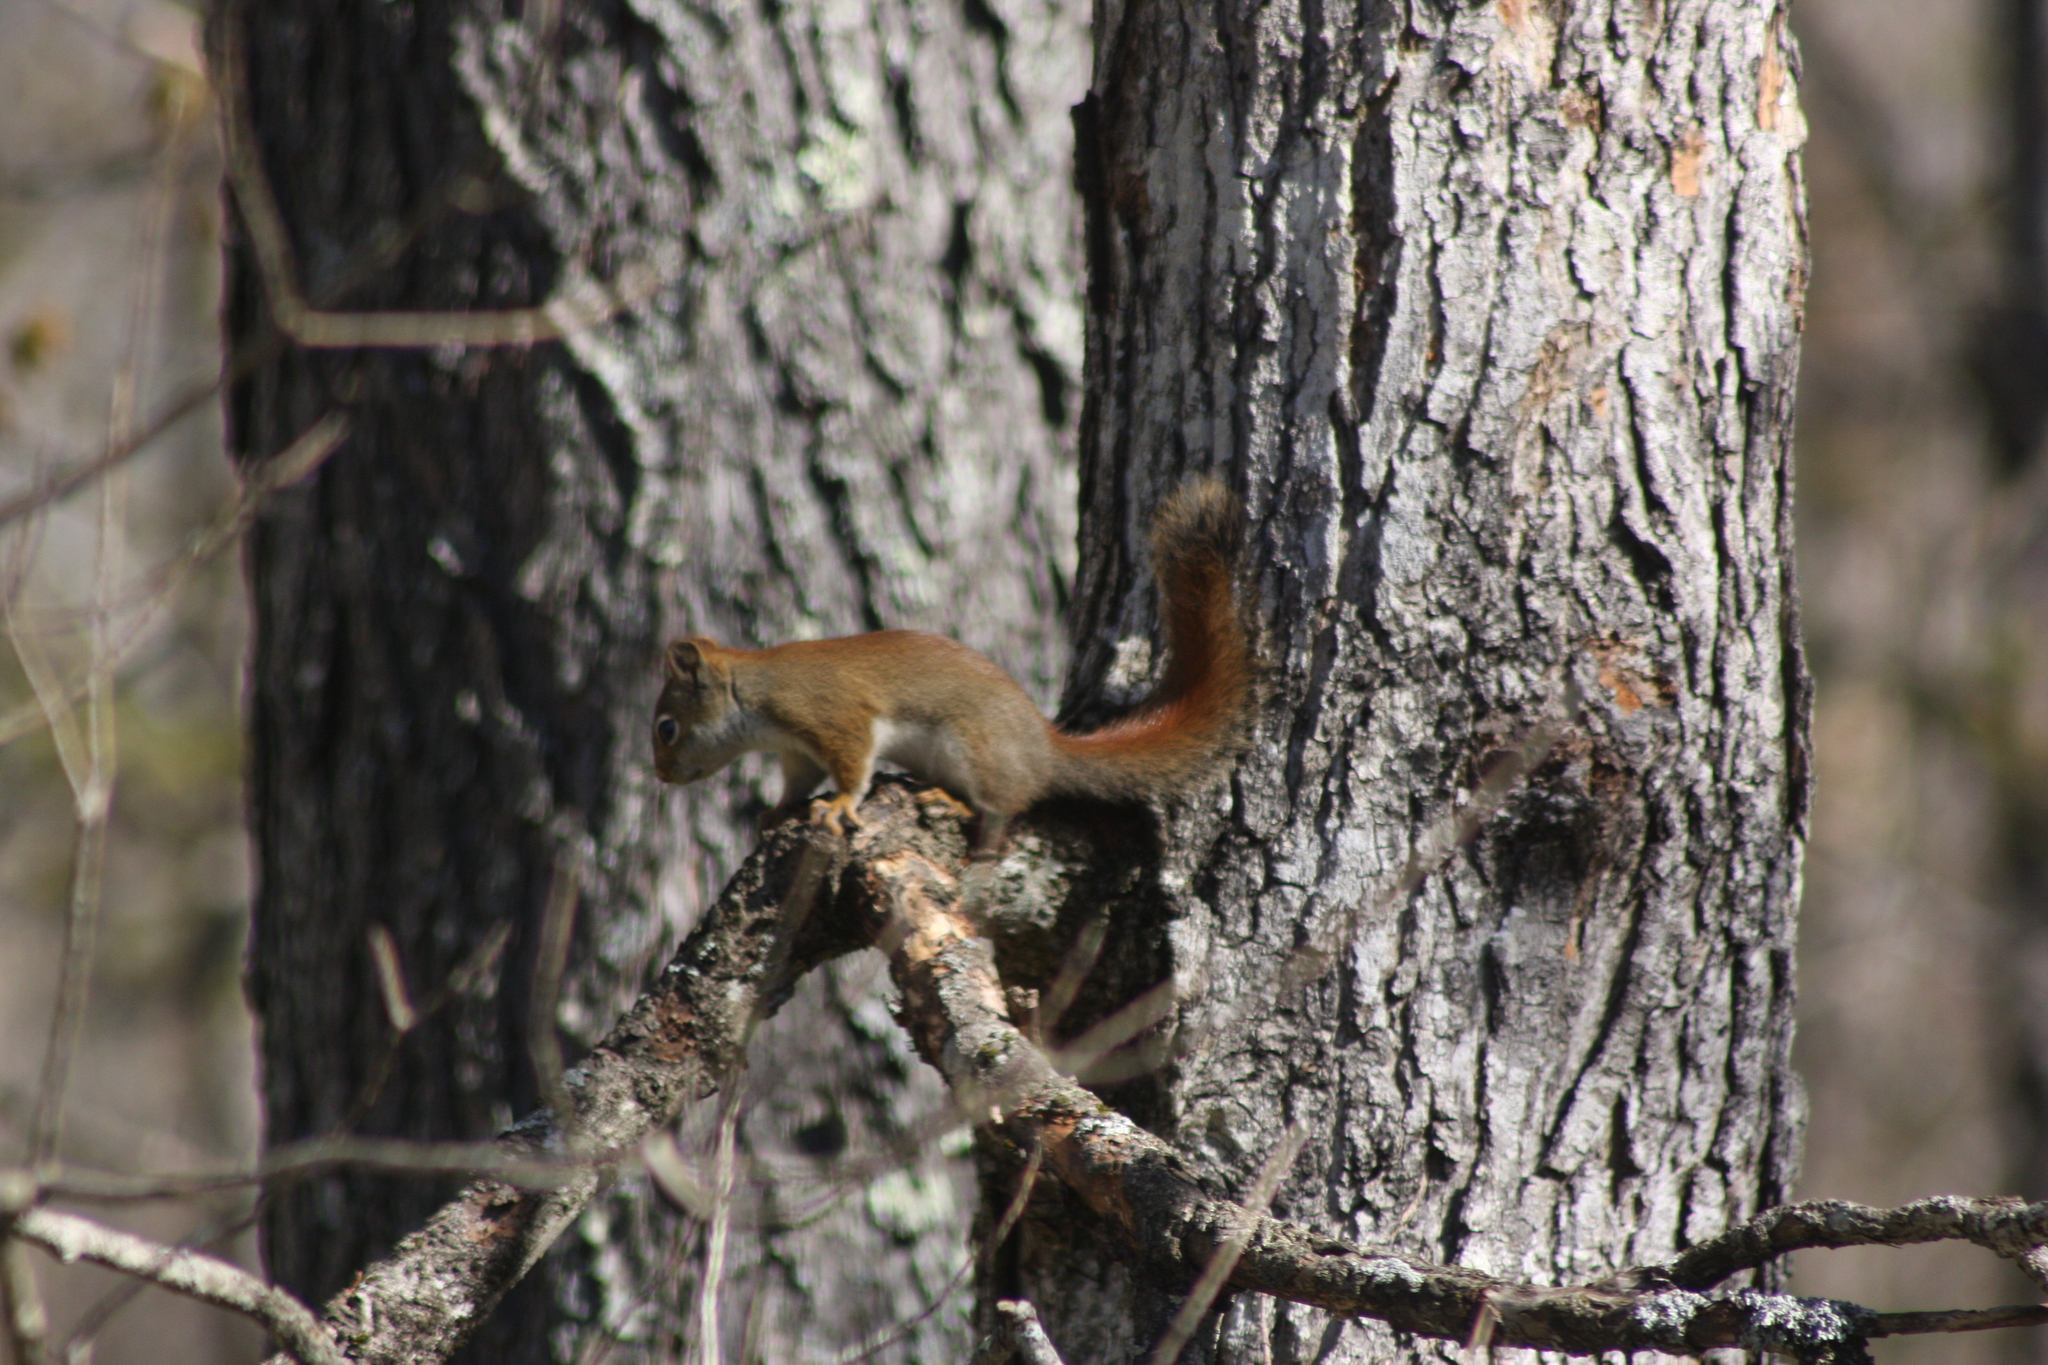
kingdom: Animalia
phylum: Chordata
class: Mammalia
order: Rodentia
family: Sciuridae
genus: Tamiasciurus
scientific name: Tamiasciurus hudsonicus
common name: Red squirrel
